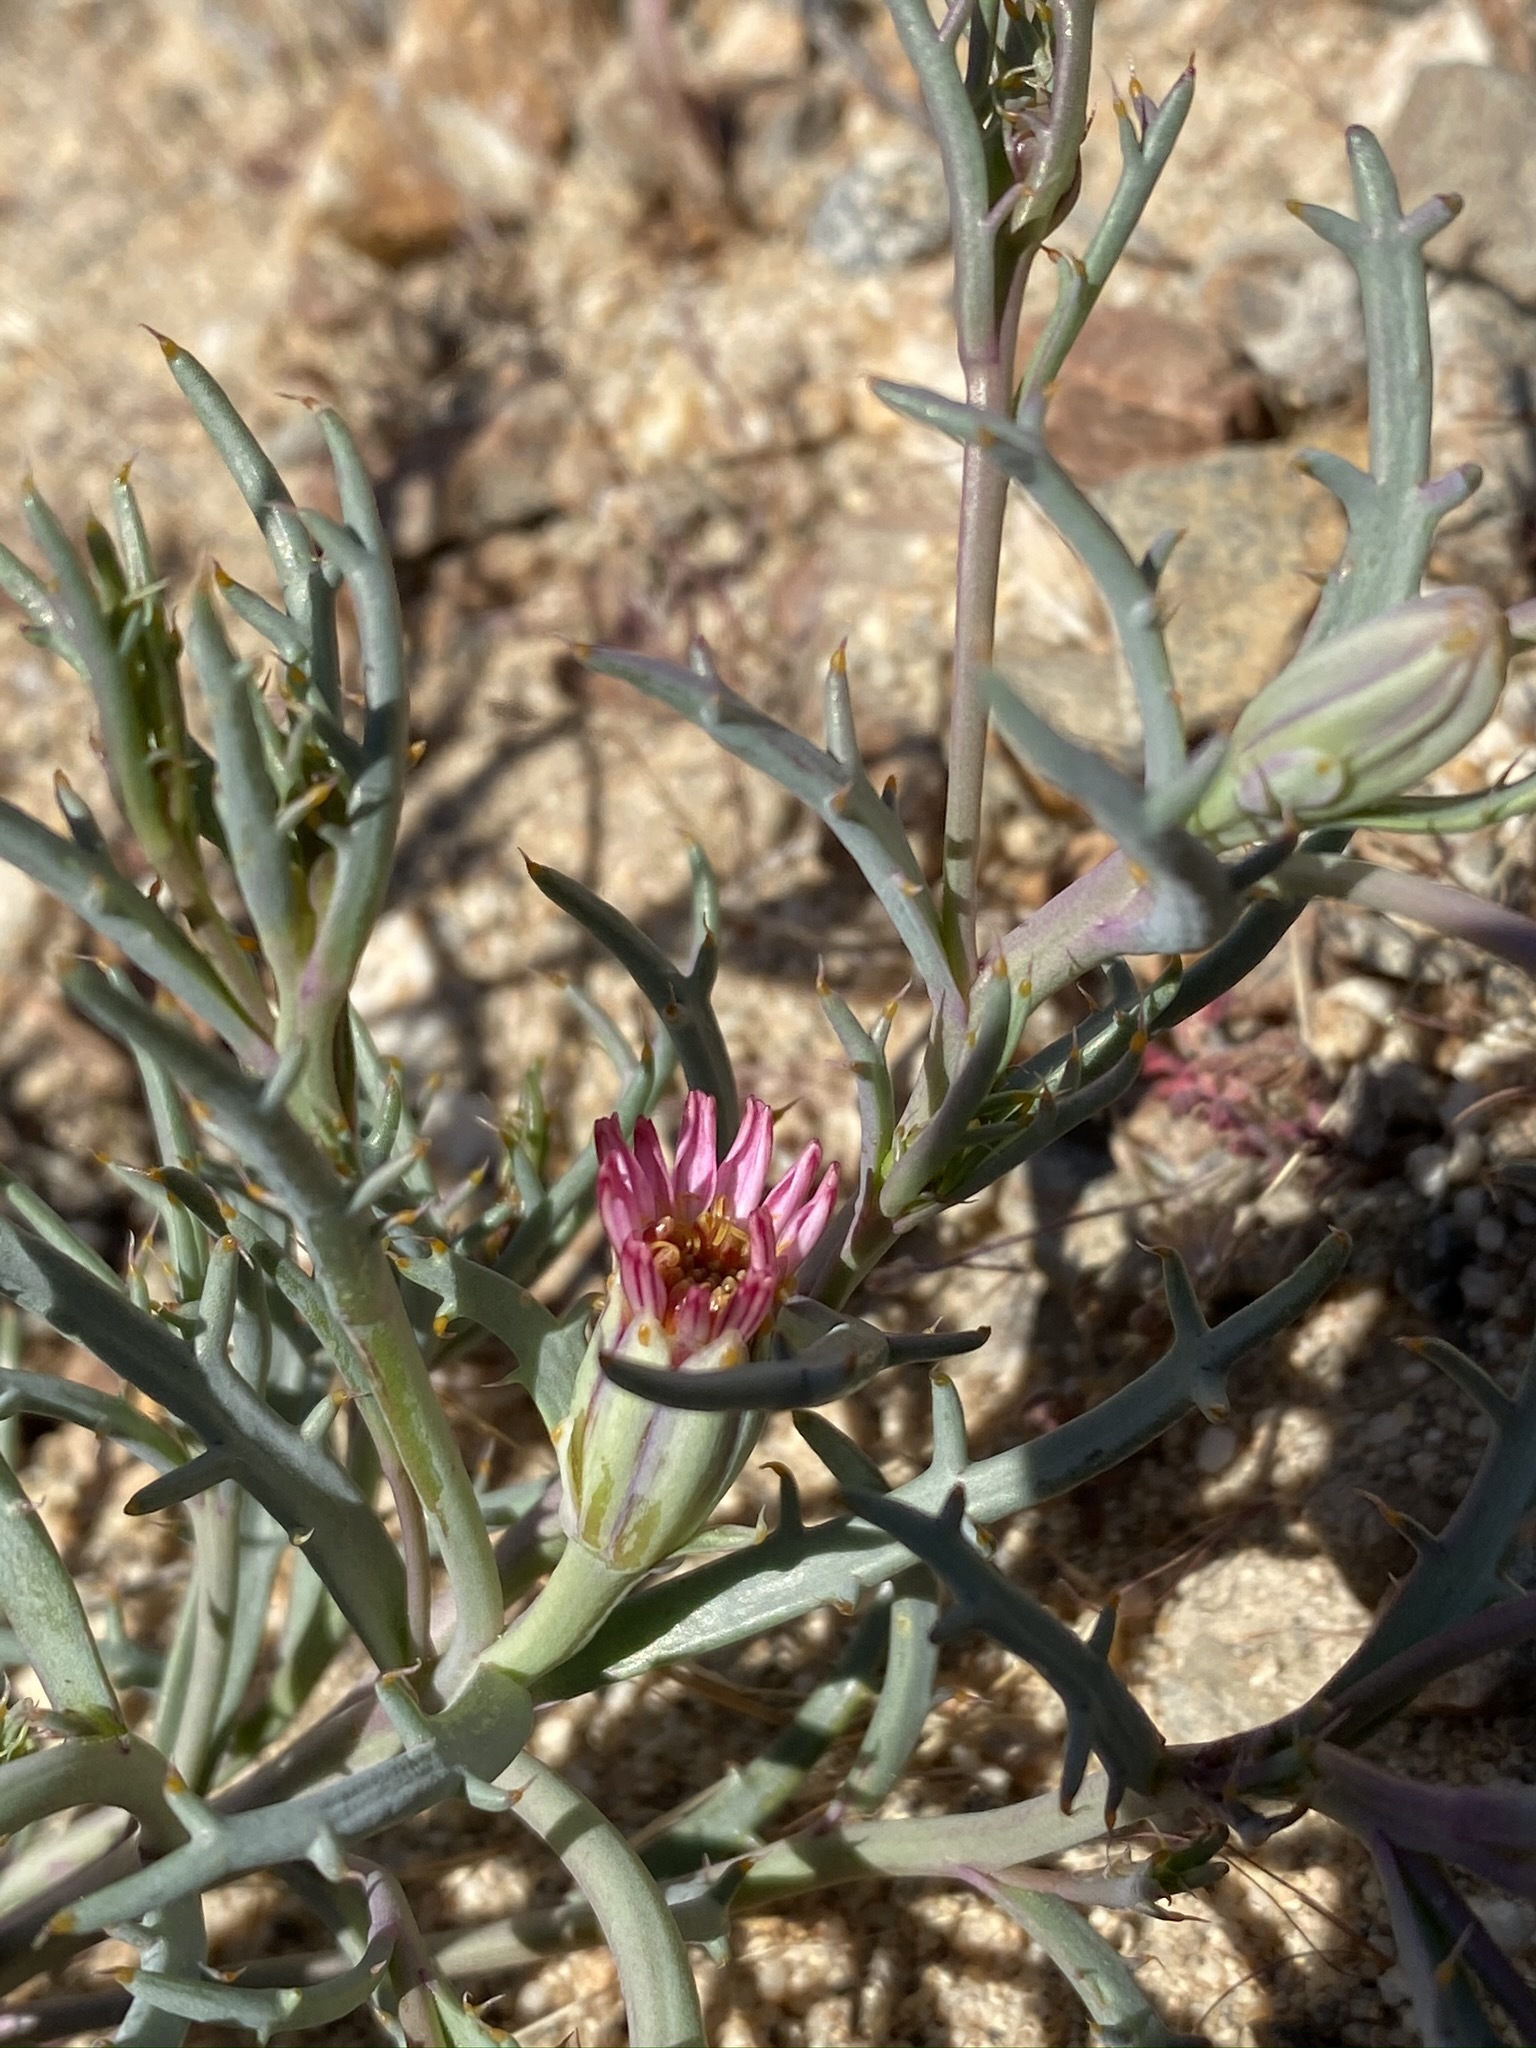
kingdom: Plantae
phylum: Tracheophyta
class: Magnoliopsida
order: Asterales
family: Asteraceae
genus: Nicolletia
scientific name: Nicolletia occidentalis
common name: Hole-in-the-sand-plant
